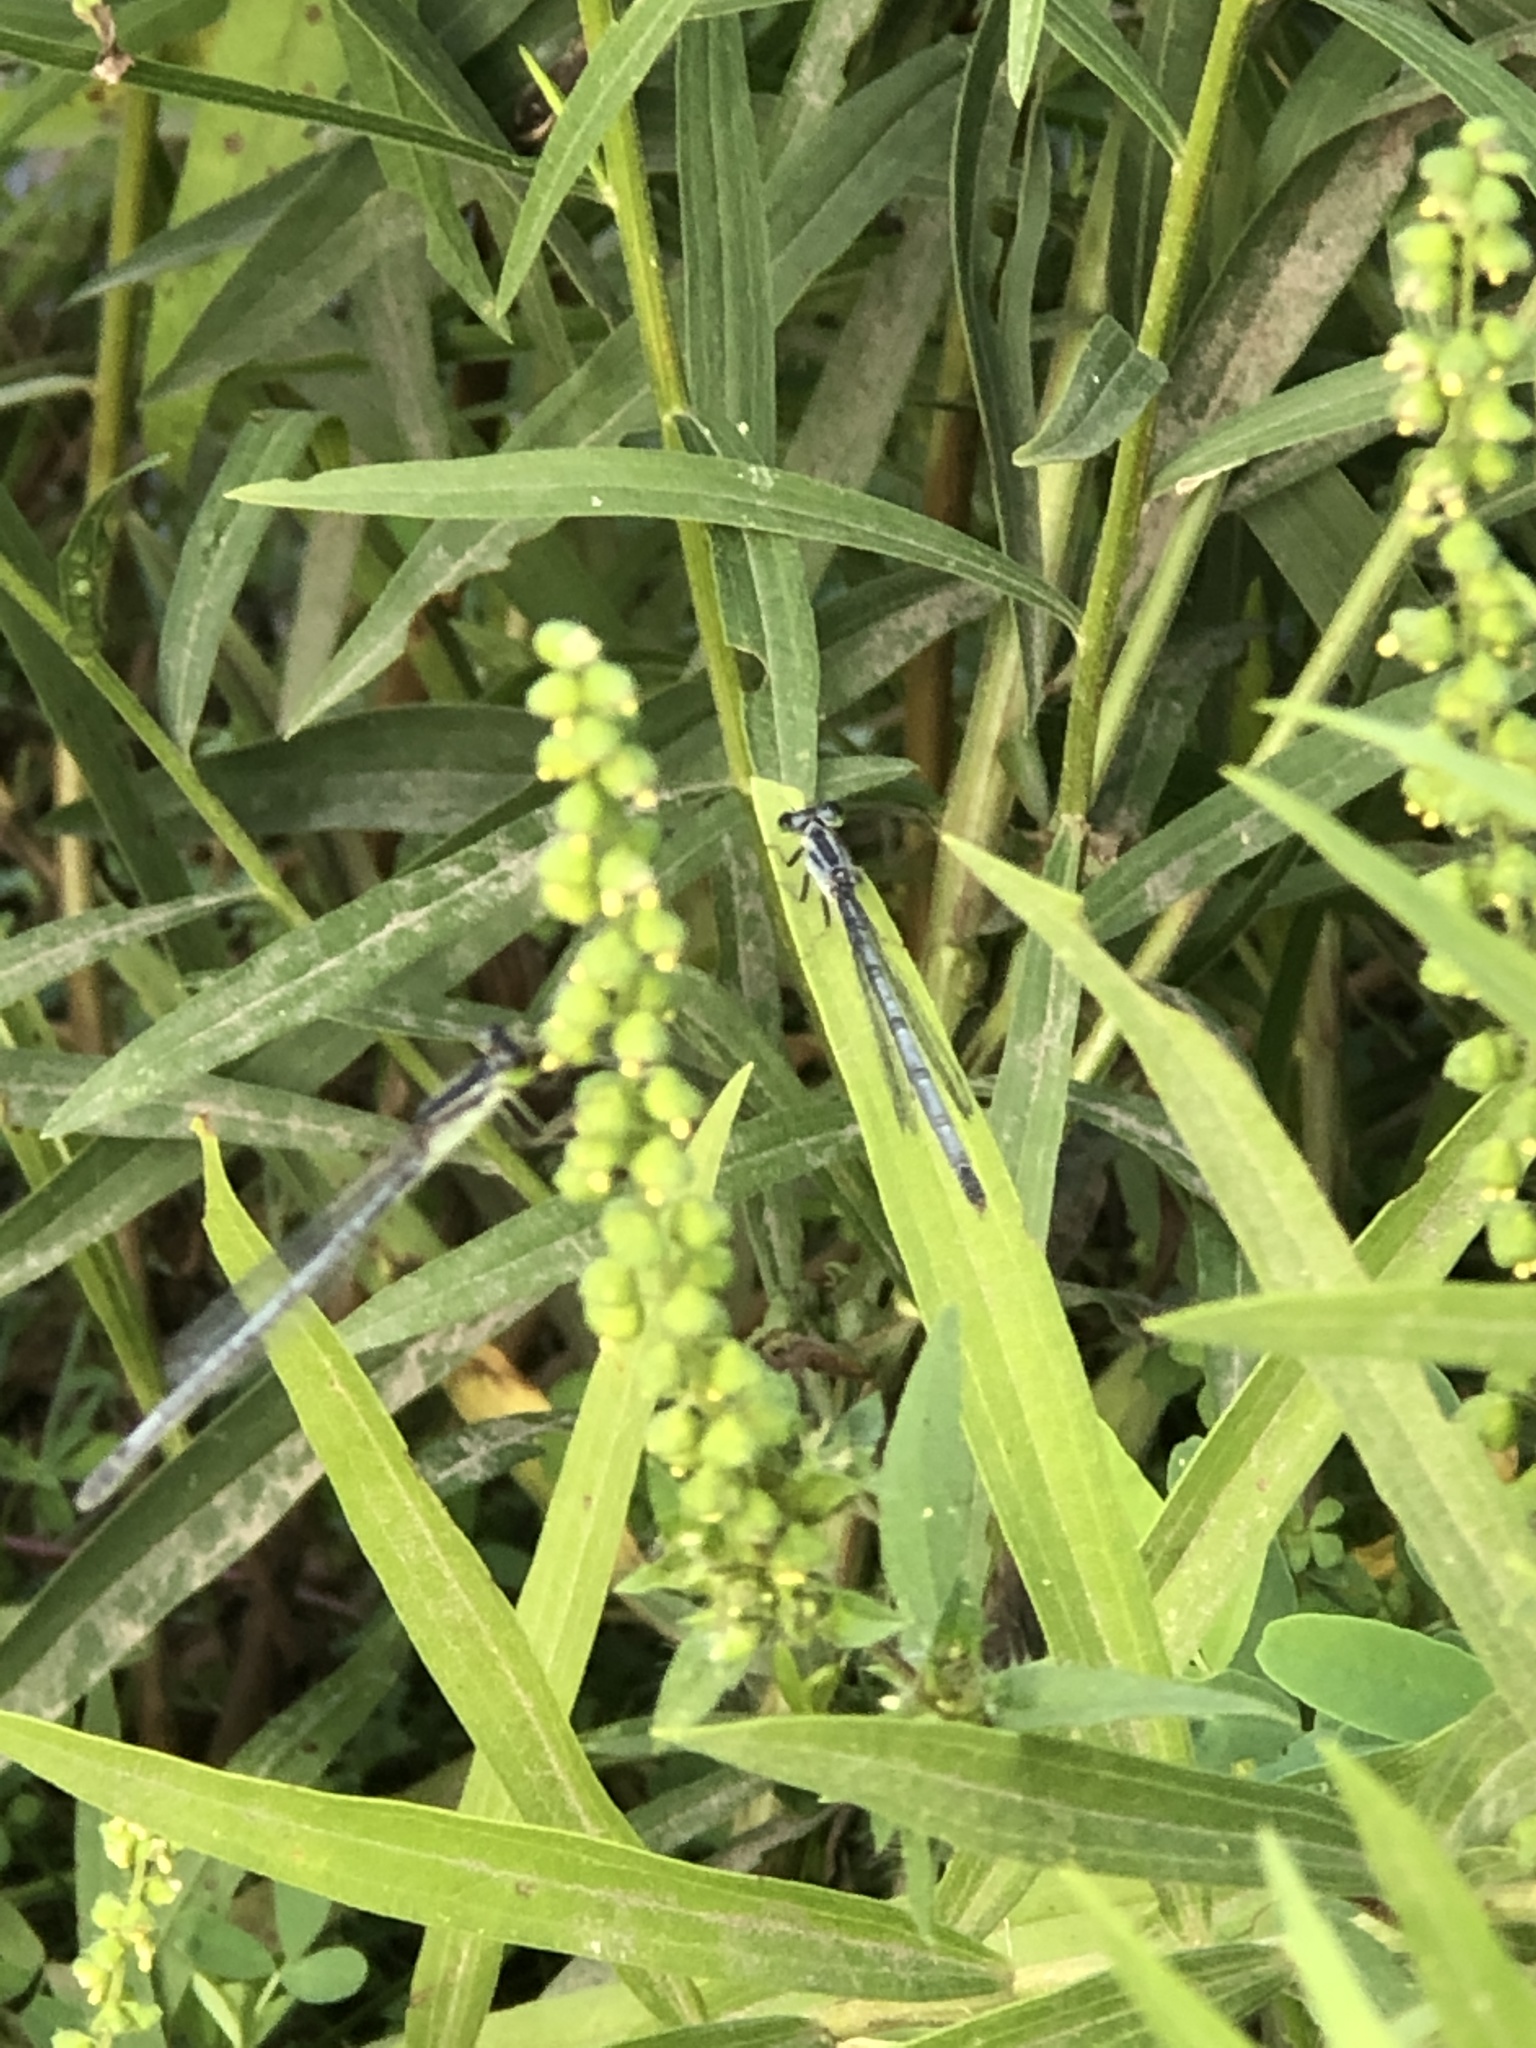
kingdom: Animalia
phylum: Arthropoda
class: Insecta
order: Odonata
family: Coenagrionidae
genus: Ischnura
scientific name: Ischnura verticalis
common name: Eastern forktail
